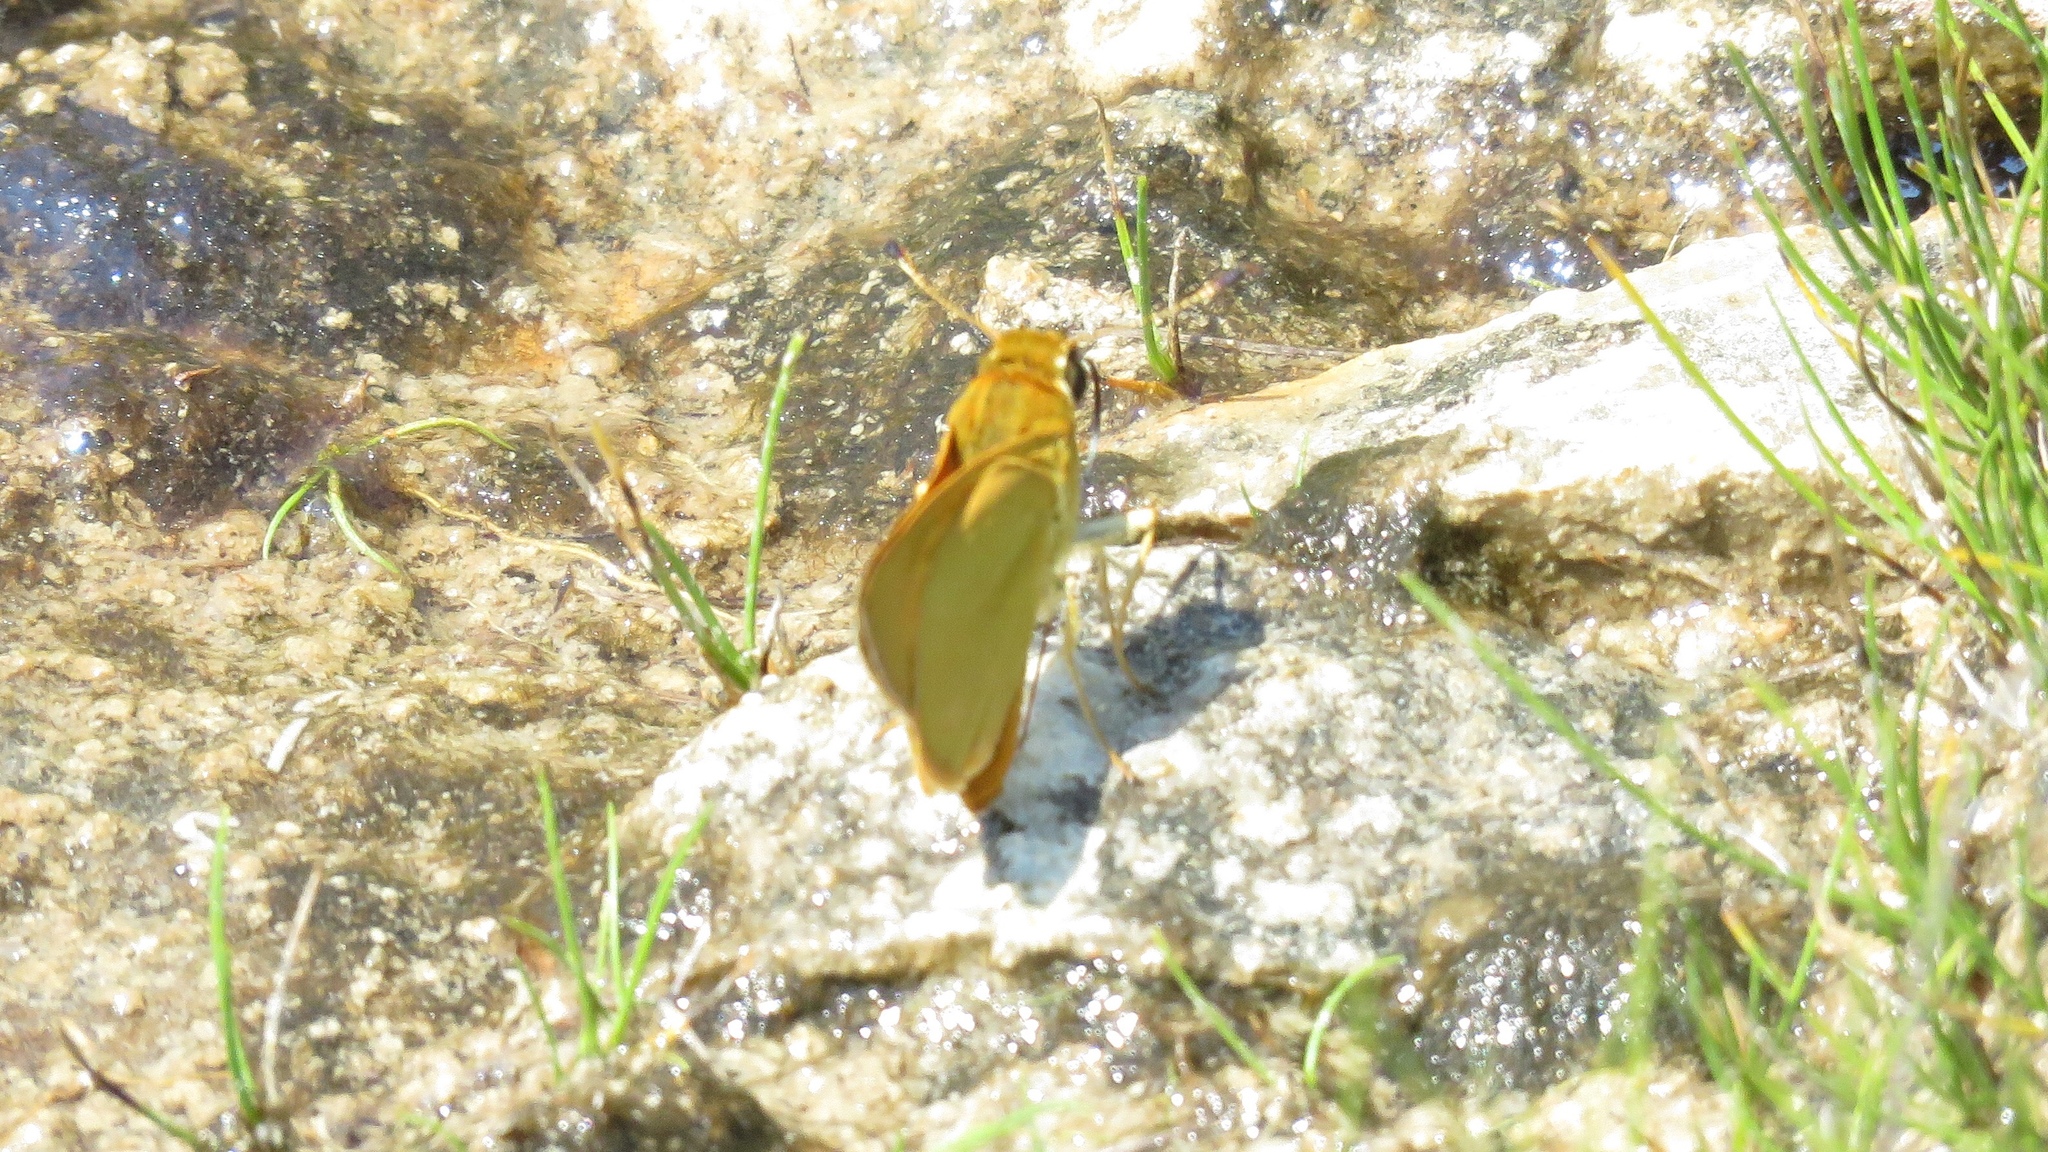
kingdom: Animalia
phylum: Arthropoda
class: Insecta
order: Lepidoptera
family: Hesperiidae
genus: Atrytone
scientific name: Atrytone delaware
